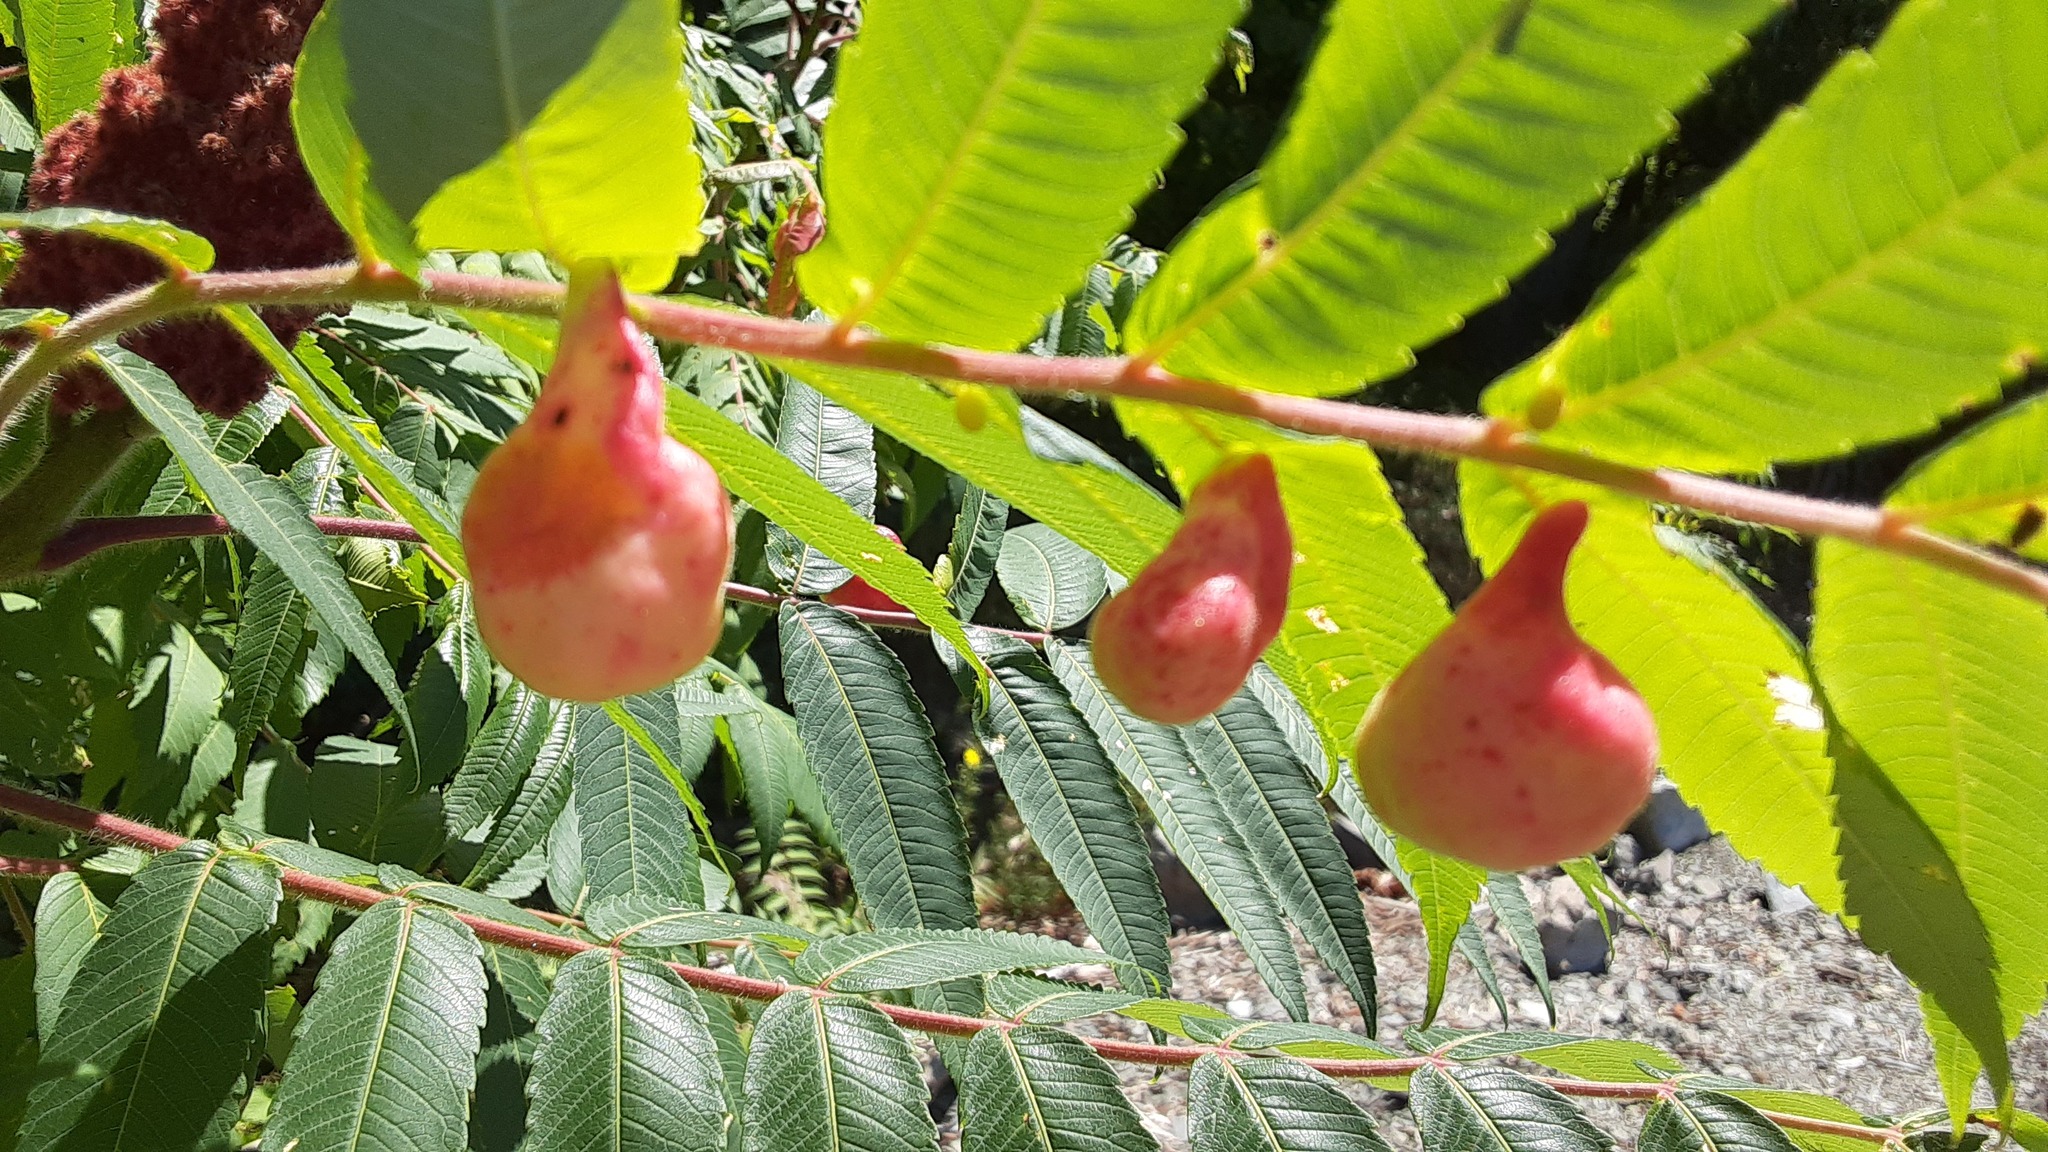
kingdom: Animalia
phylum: Arthropoda
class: Insecta
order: Hemiptera
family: Aphididae
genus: Melaphis
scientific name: Melaphis rhois
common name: Sumac gall aphid
